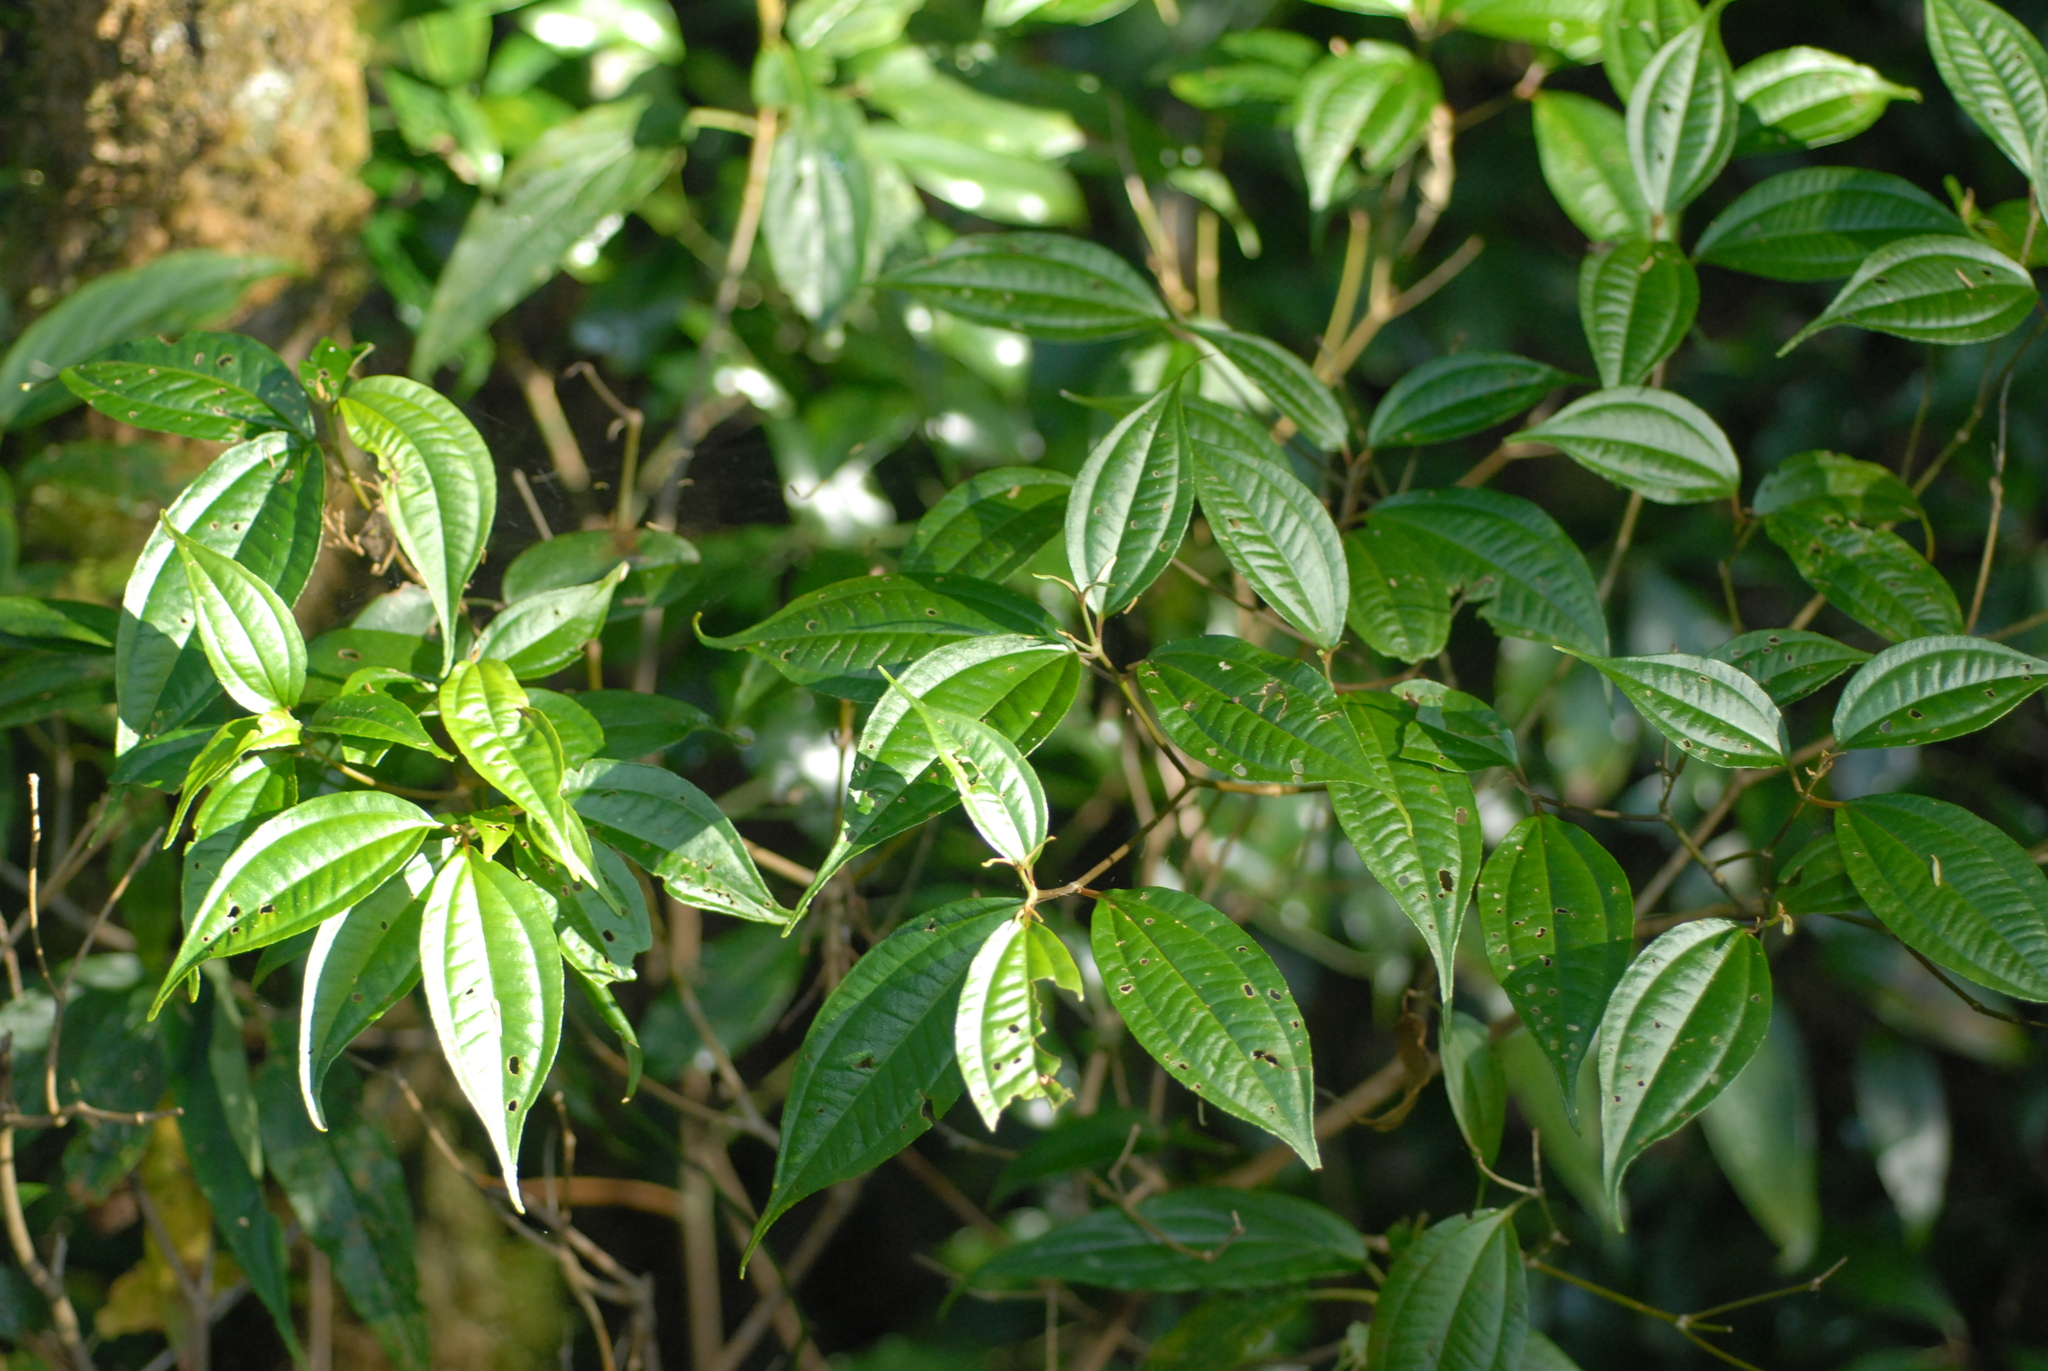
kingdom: Plantae
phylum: Tracheophyta
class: Magnoliopsida
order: Myrtales
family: Melastomataceae
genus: Barthea
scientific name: Barthea barthei
